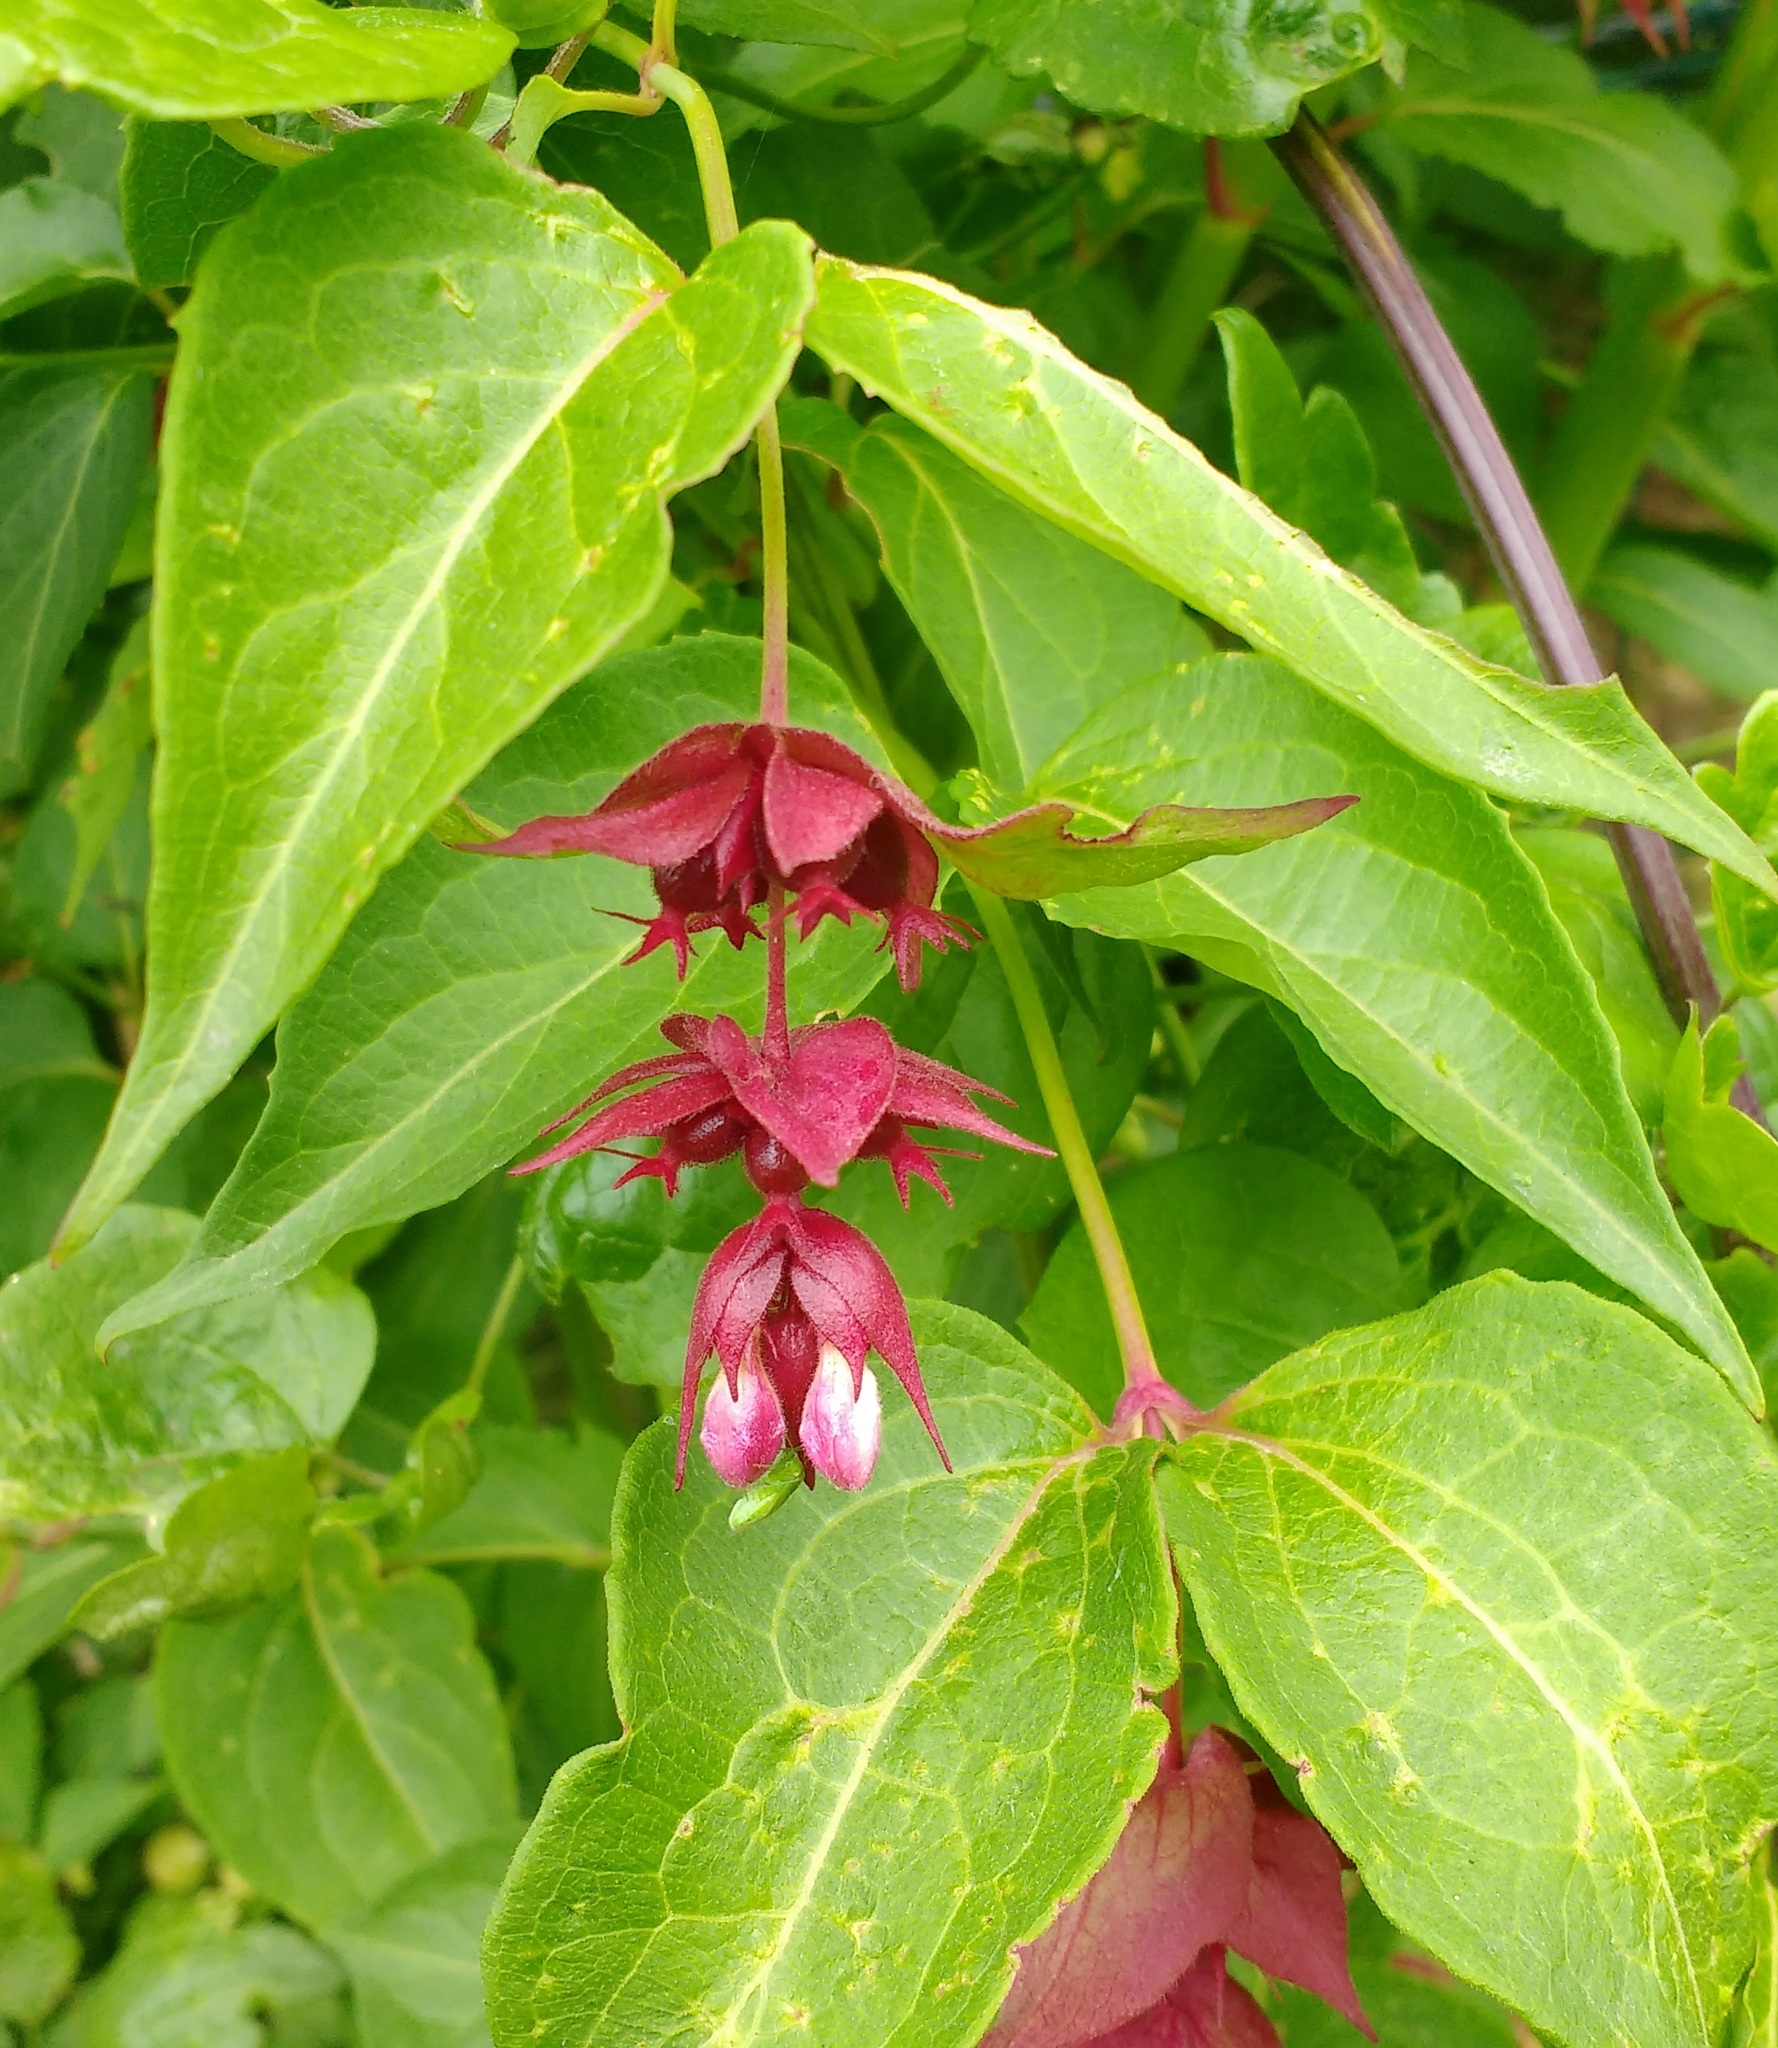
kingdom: Plantae
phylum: Tracheophyta
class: Magnoliopsida
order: Dipsacales
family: Caprifoliaceae
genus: Leycesteria
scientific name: Leycesteria formosa
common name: Himalayan honeysuckle
